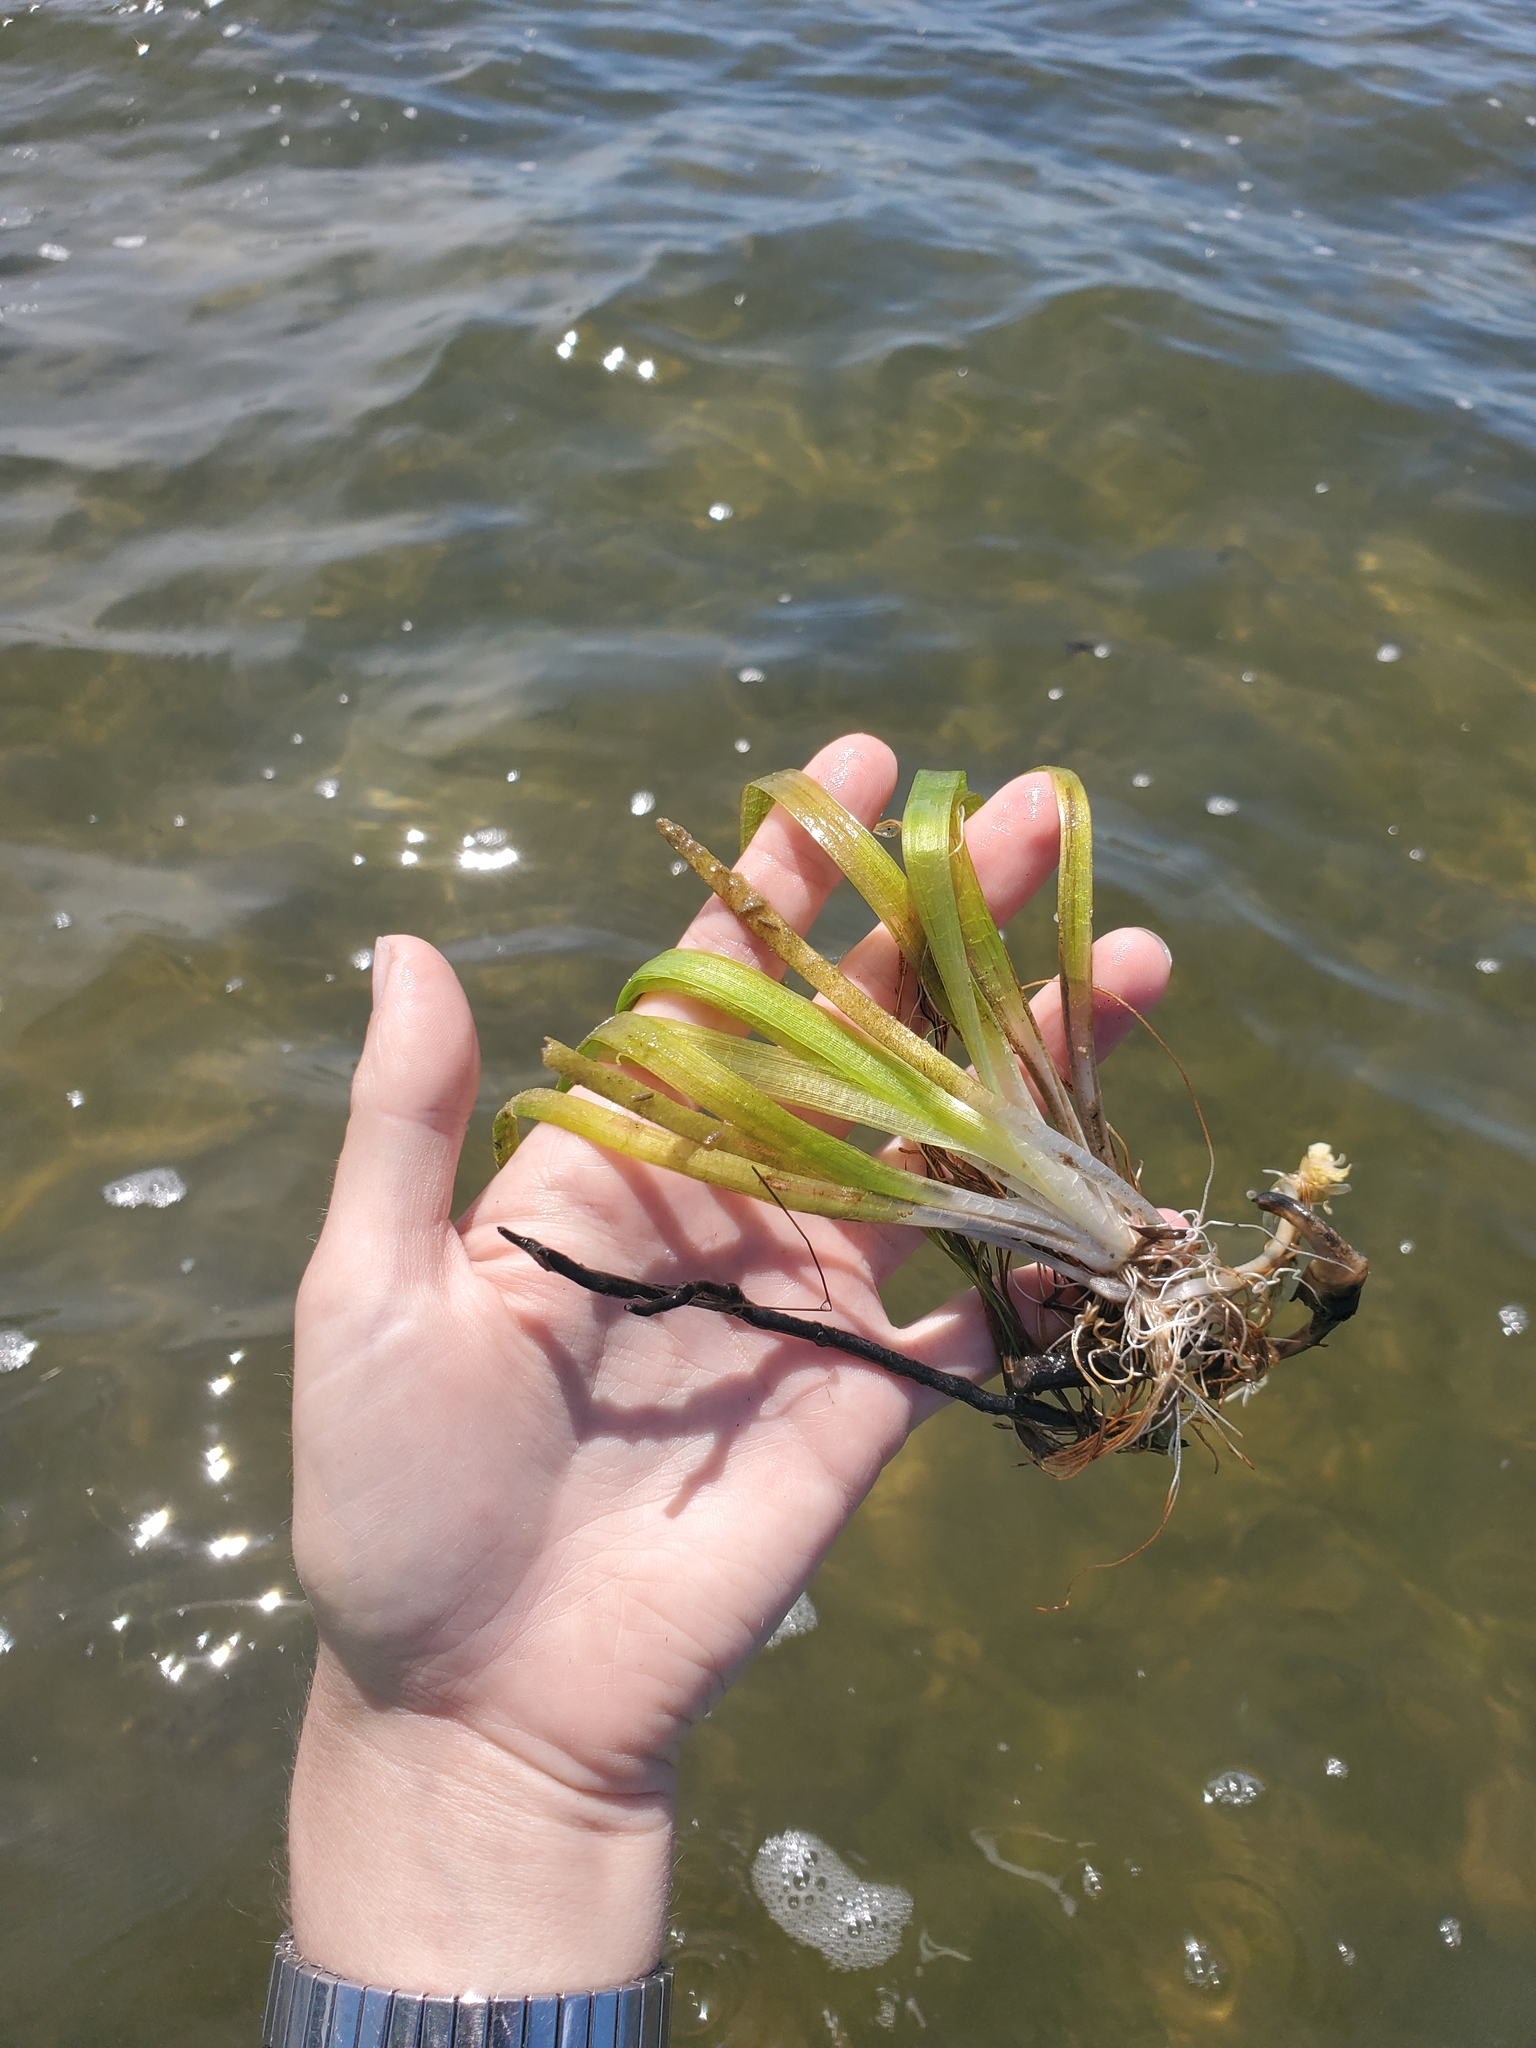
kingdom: Plantae
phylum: Tracheophyta
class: Liliopsida
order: Alismatales
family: Hydrocharitaceae
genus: Vallisneria
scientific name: Vallisneria americana
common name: American eelgrass
